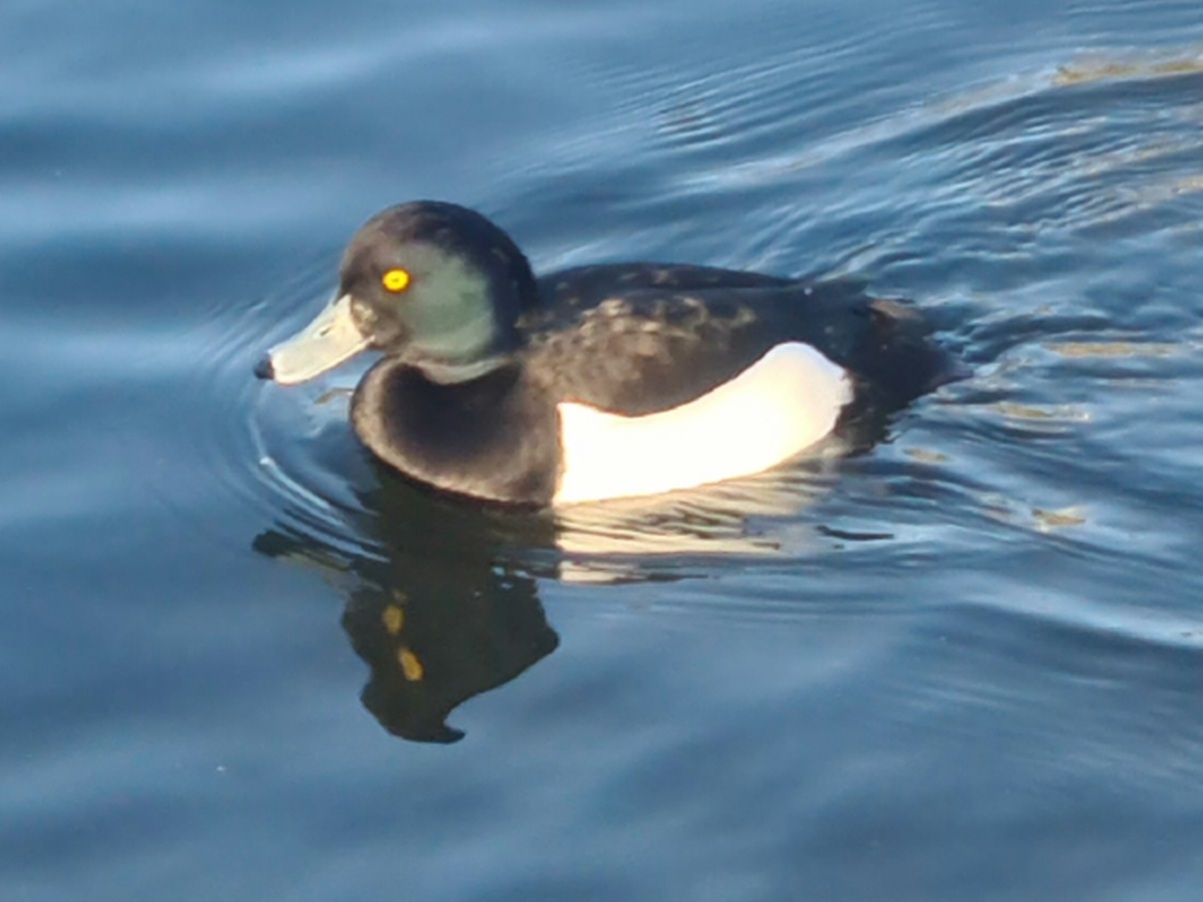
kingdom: Animalia
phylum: Chordata
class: Aves
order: Anseriformes
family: Anatidae
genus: Aythya
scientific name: Aythya fuligula
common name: Tufted duck
